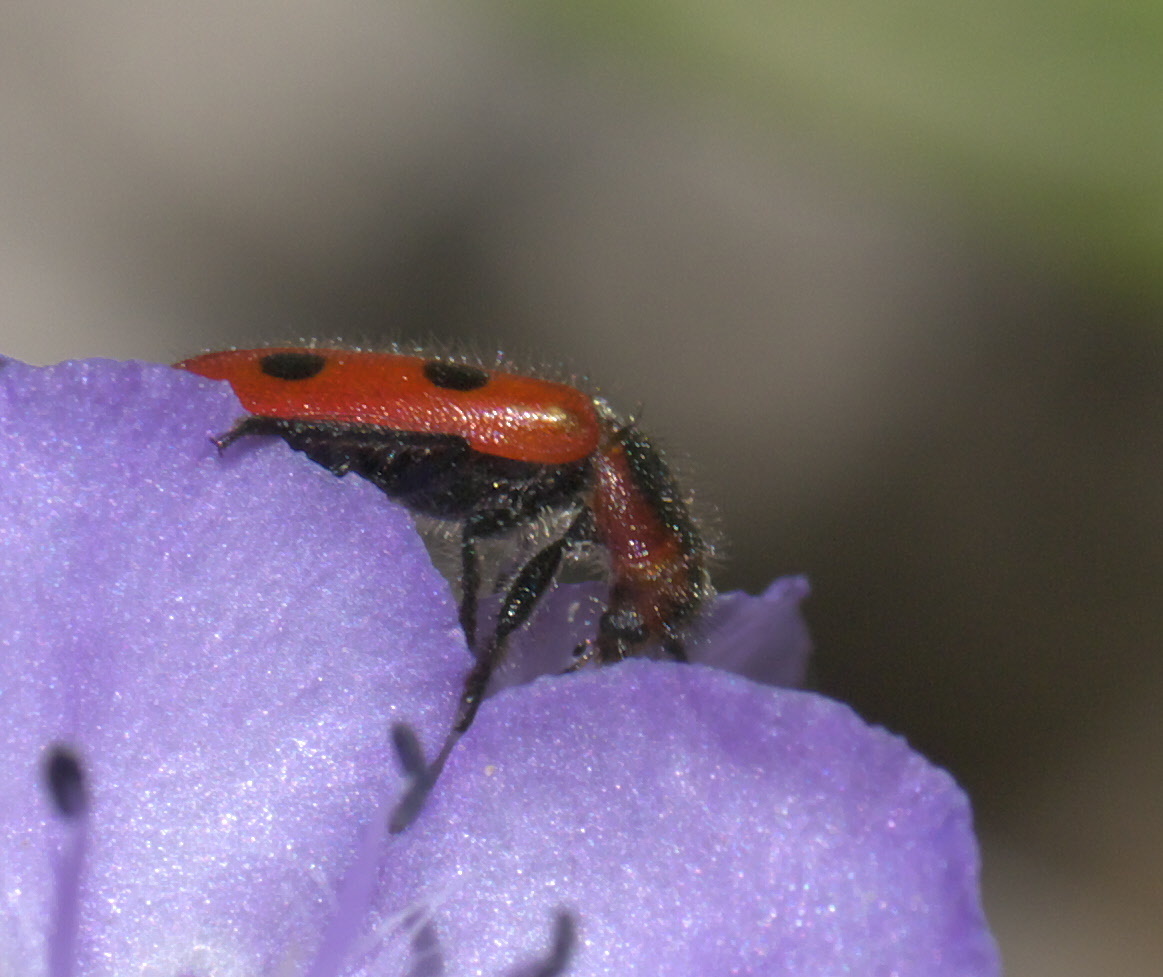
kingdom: Animalia
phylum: Arthropoda
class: Insecta
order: Coleoptera
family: Cleridae
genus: Pelonides
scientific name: Pelonides
